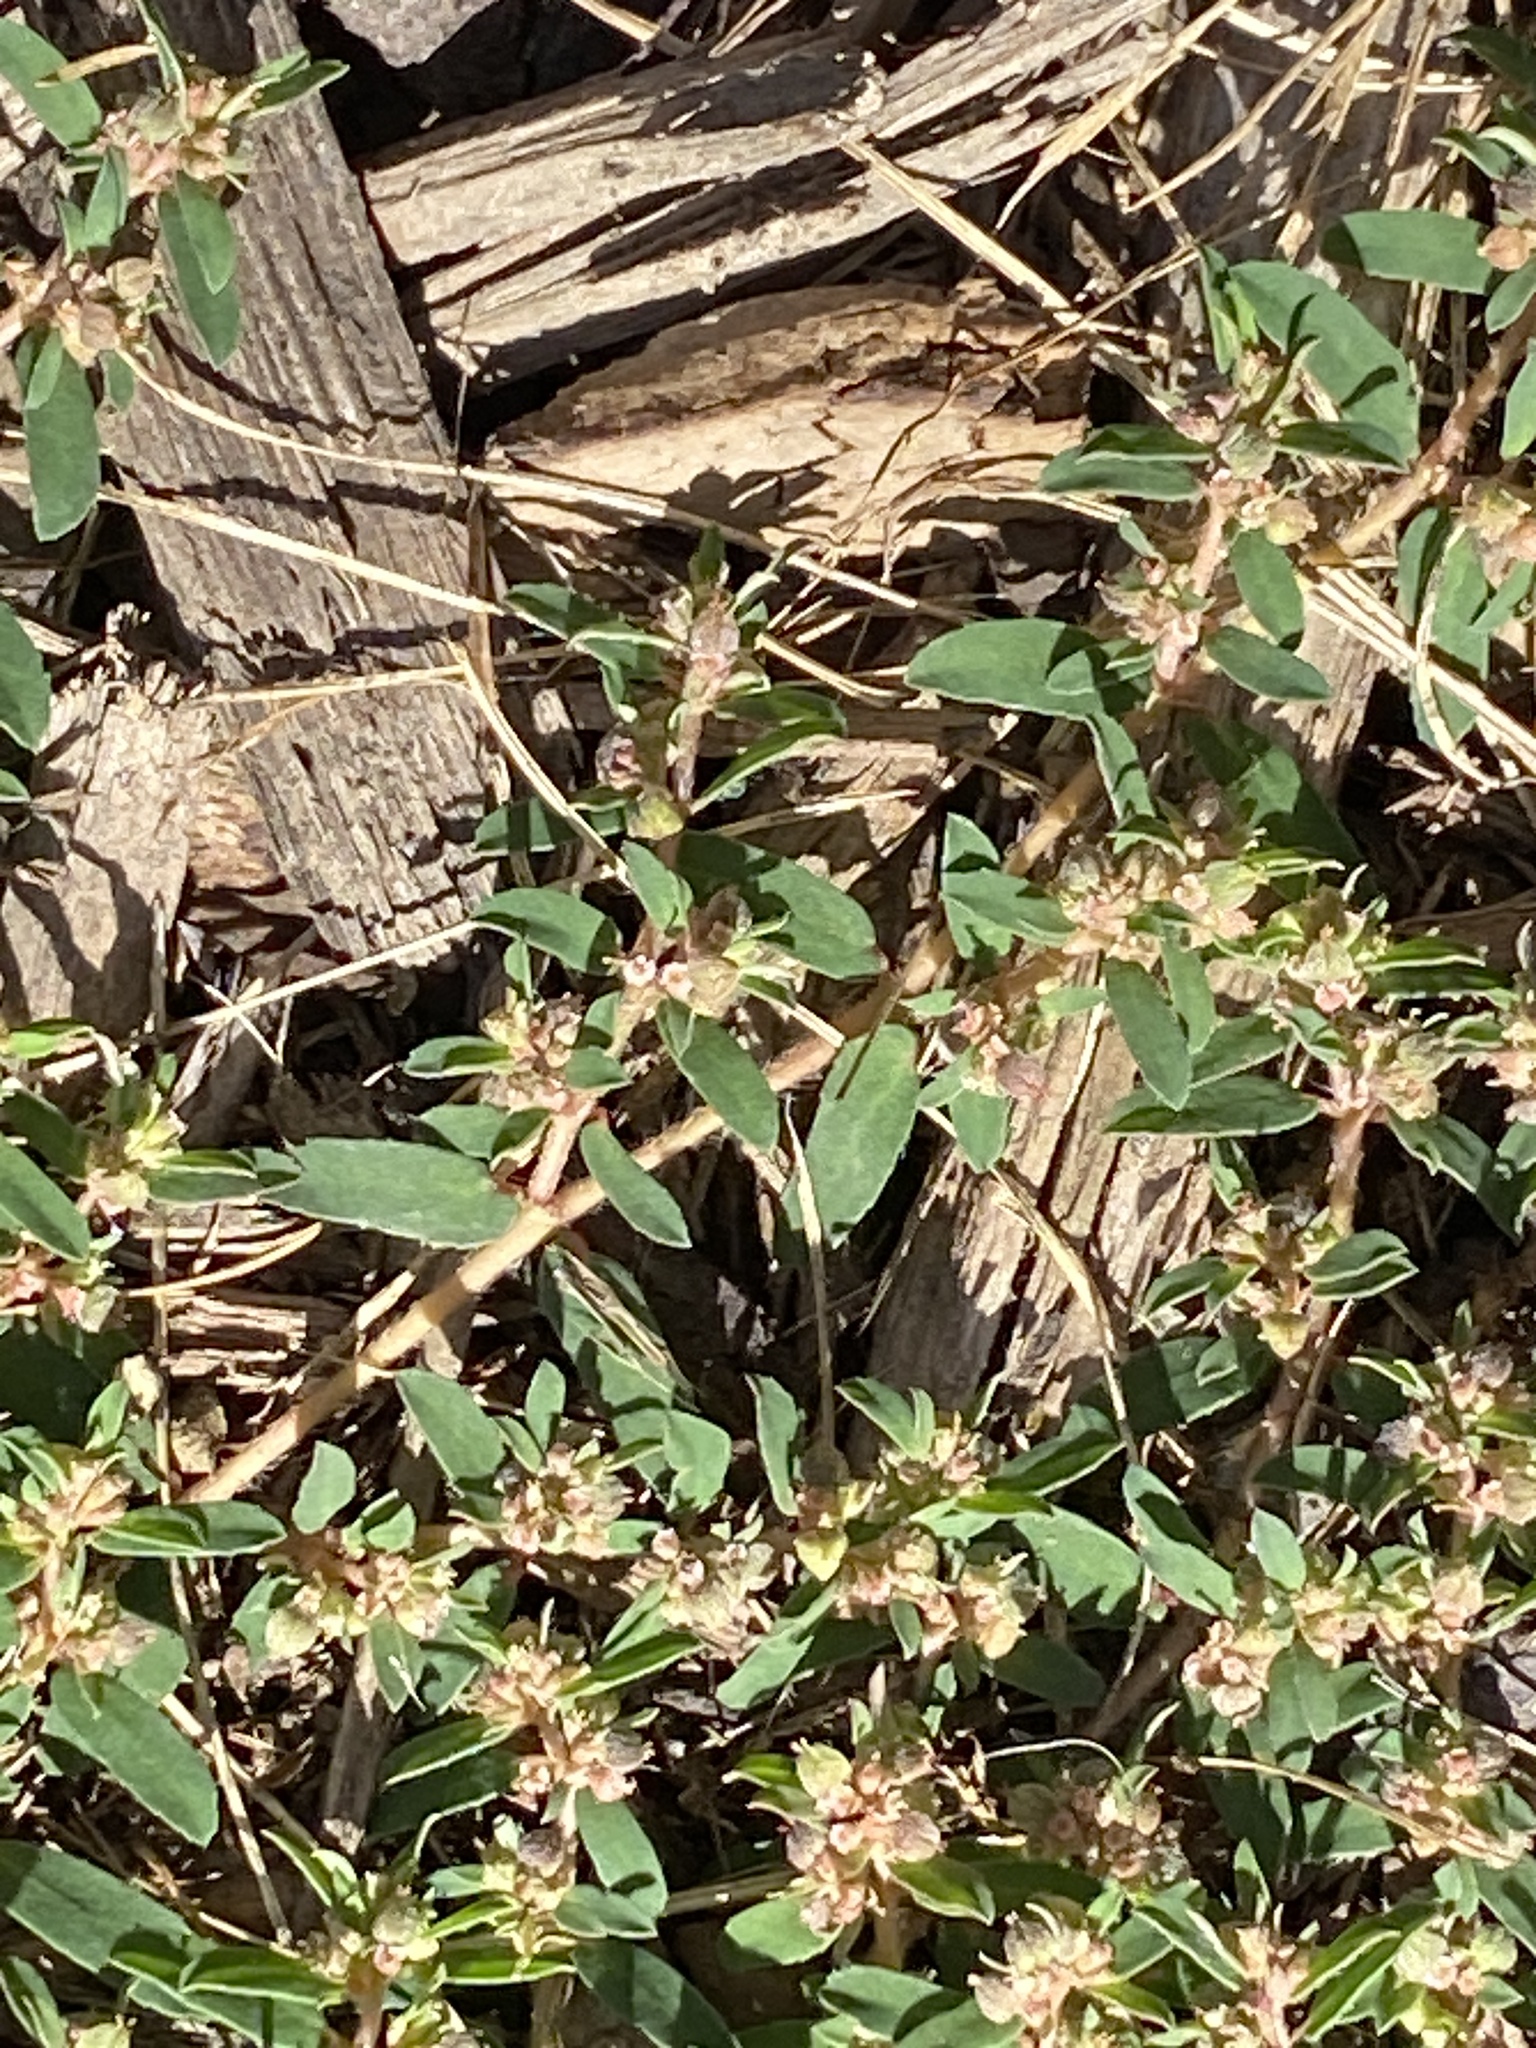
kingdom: Plantae
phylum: Tracheophyta
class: Magnoliopsida
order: Malpighiales
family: Euphorbiaceae
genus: Euphorbia
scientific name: Euphorbia maculata
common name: Spotted spurge
